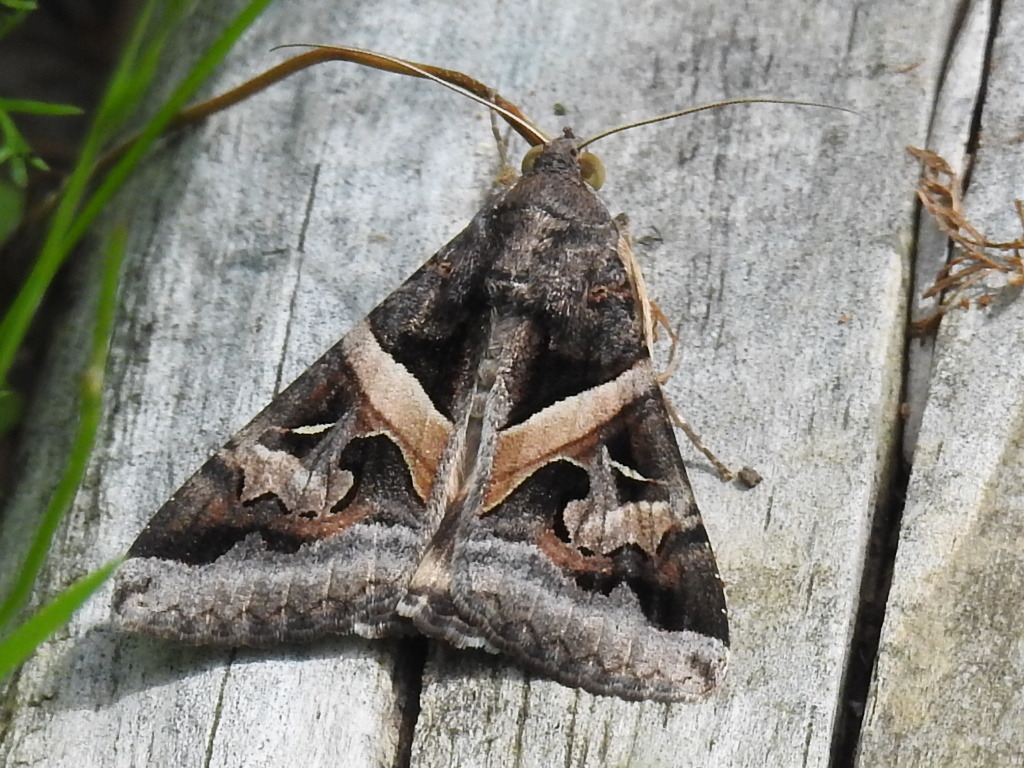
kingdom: Animalia
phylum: Arthropoda
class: Insecta
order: Lepidoptera
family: Erebidae
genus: Melipotis
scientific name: Melipotis indomita
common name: Moth
